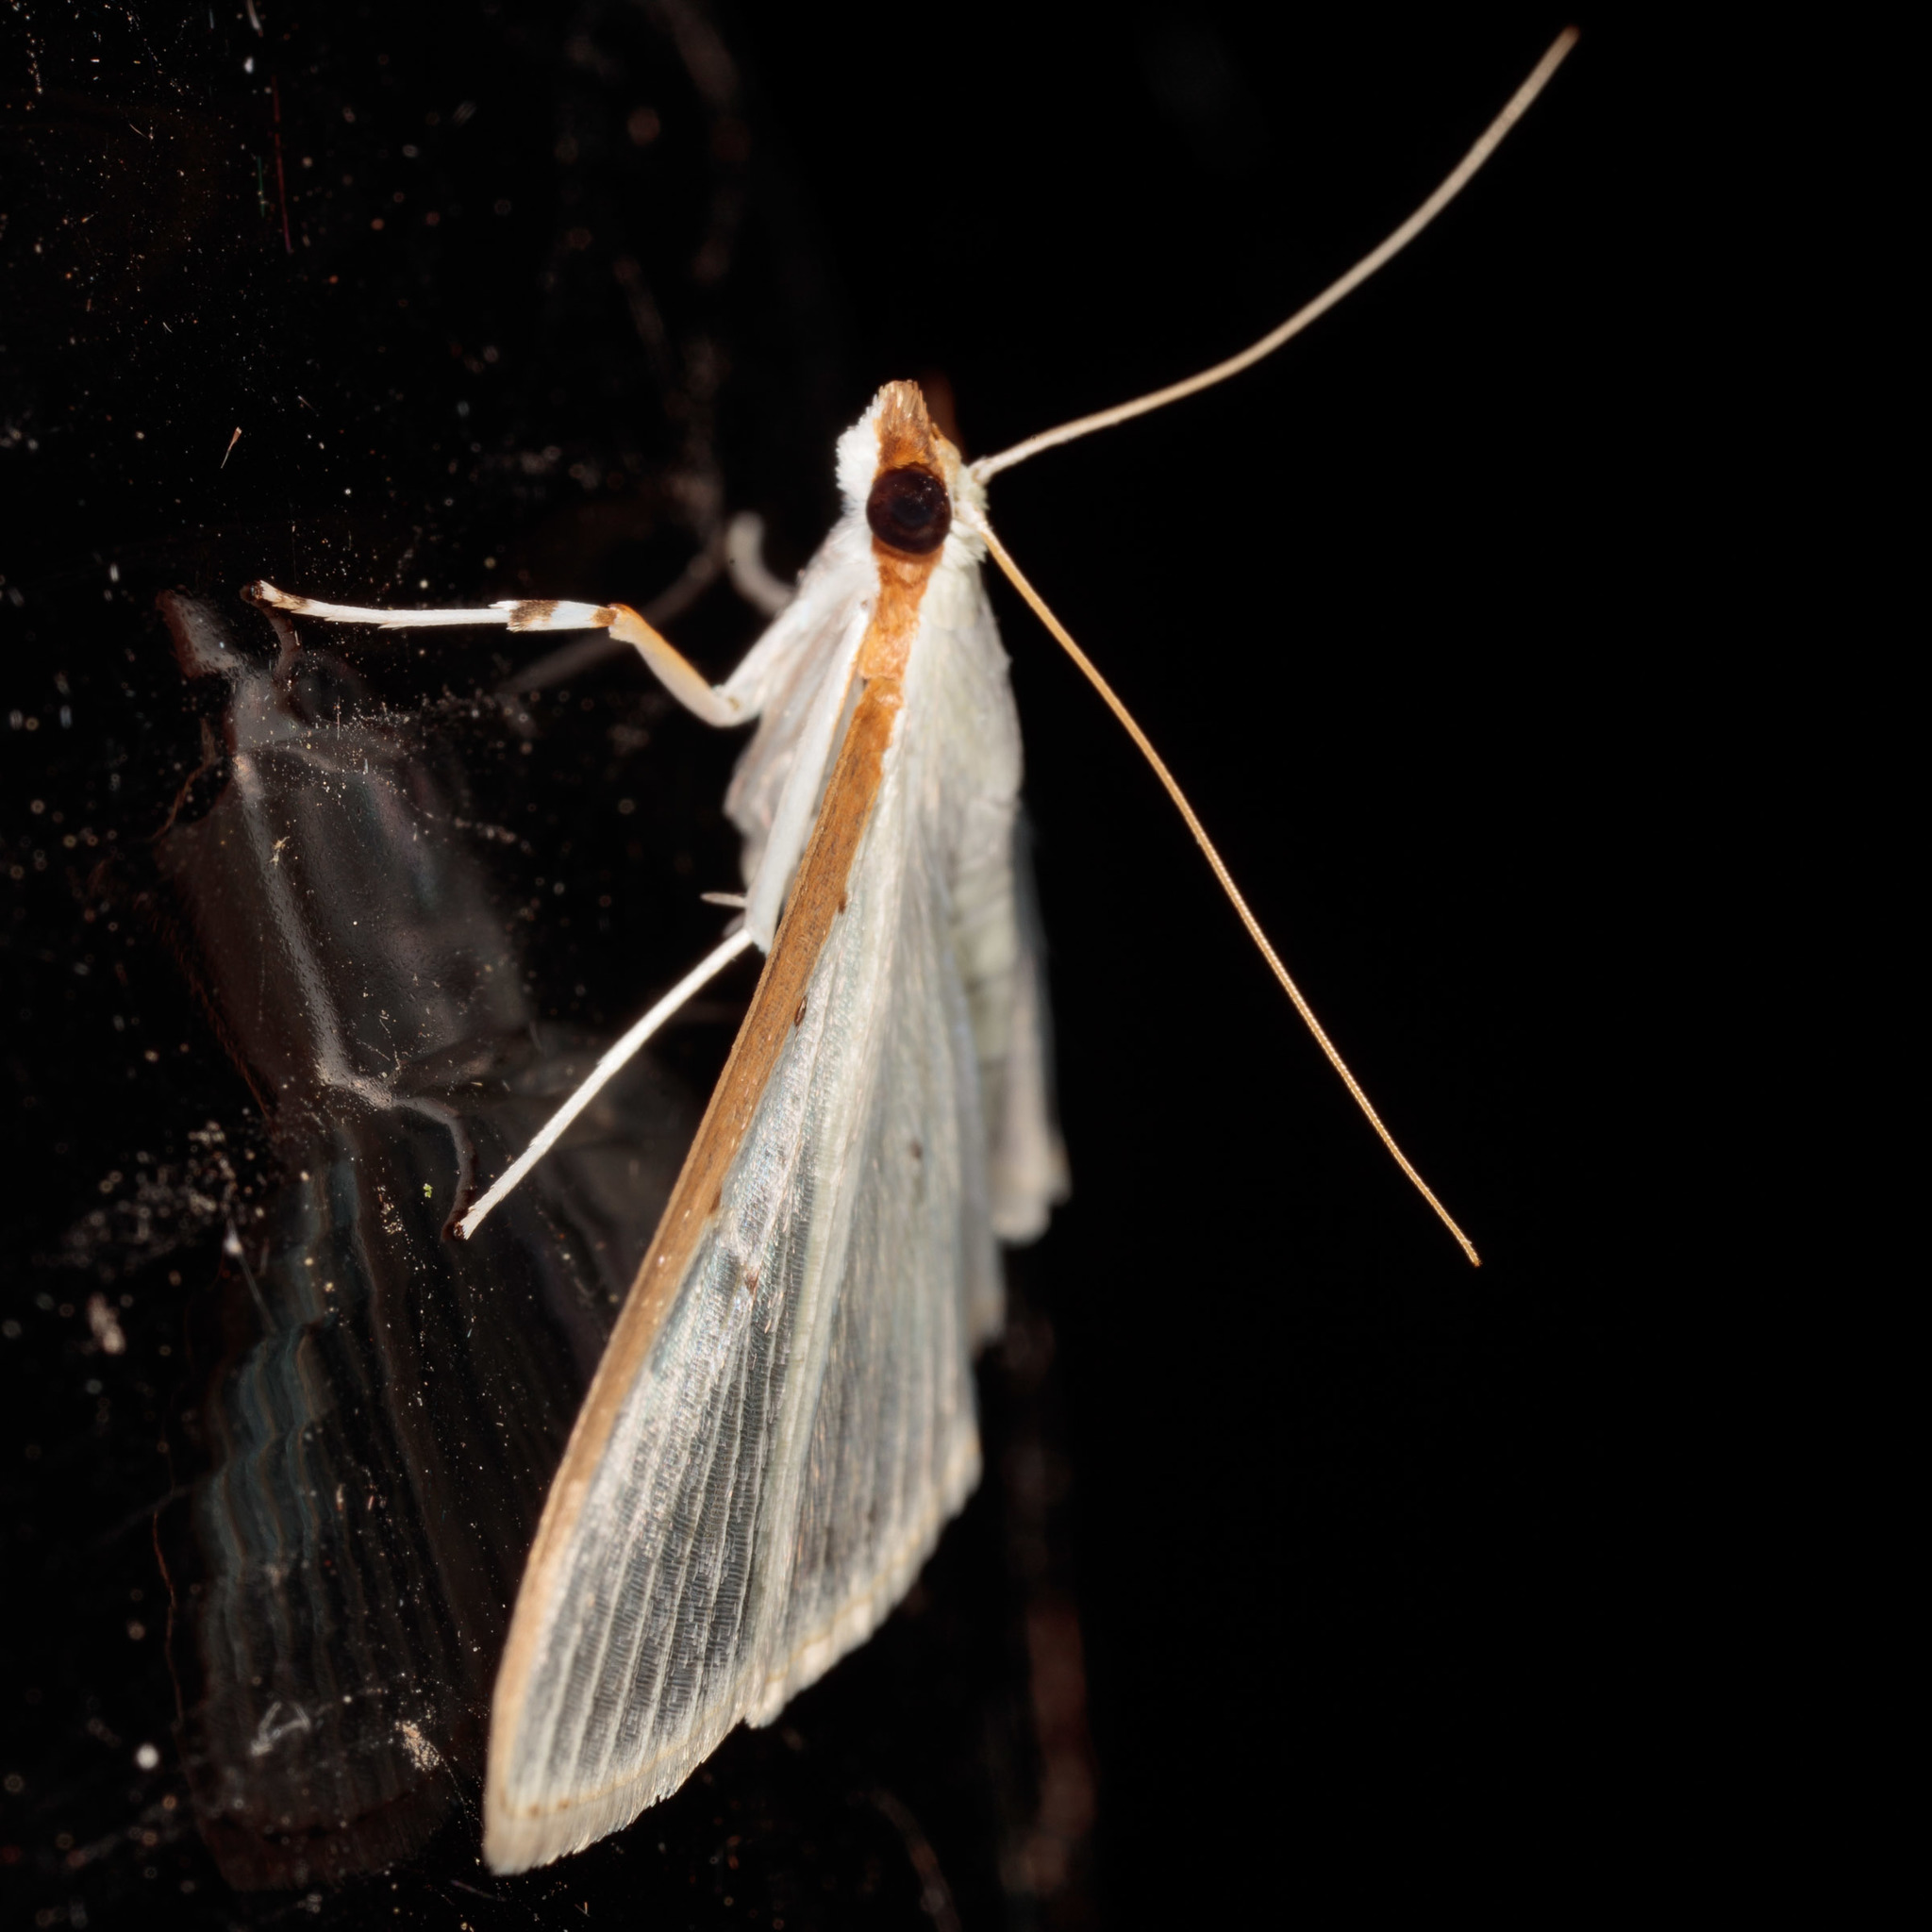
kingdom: Animalia
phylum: Arthropoda
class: Insecta
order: Lepidoptera
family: Crambidae
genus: Palpita
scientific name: Palpita quadristigmalis
